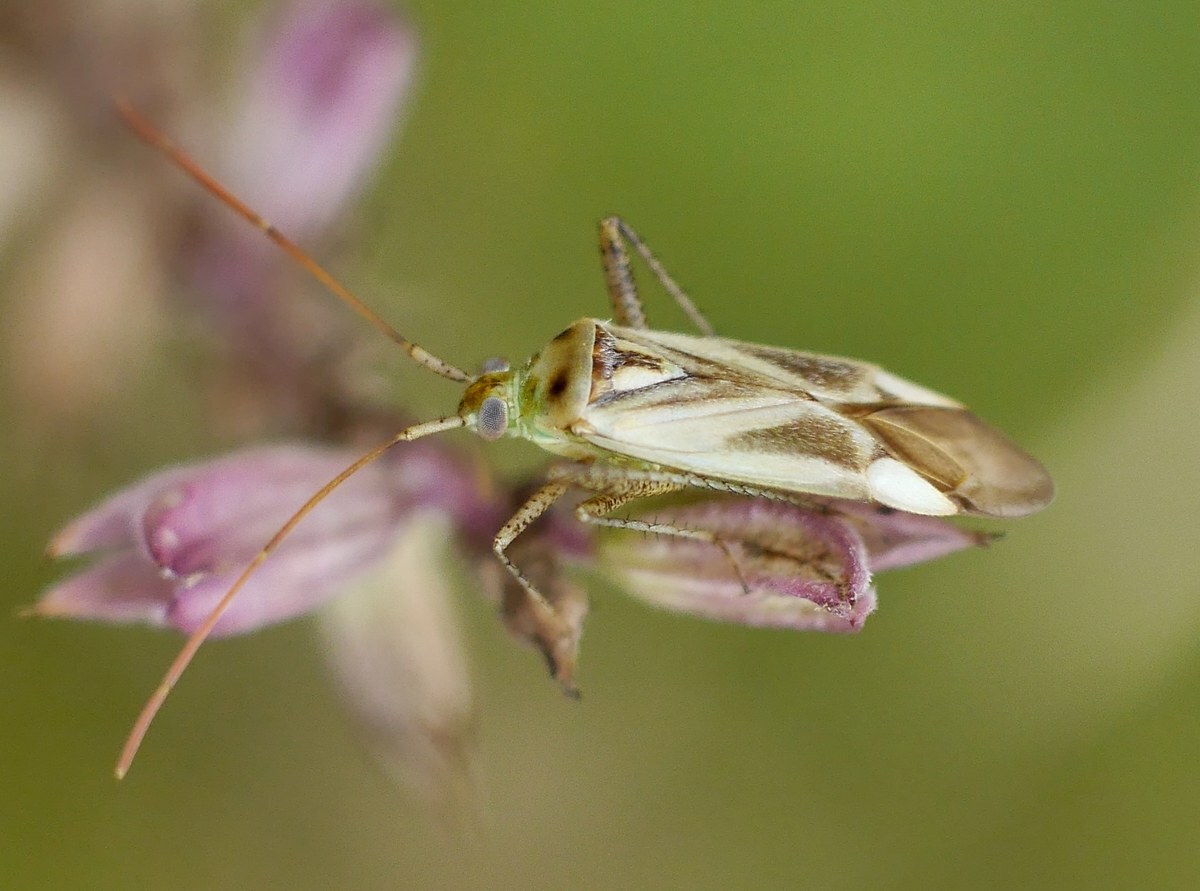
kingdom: Animalia
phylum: Arthropoda
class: Insecta
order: Hemiptera
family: Miridae
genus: Adelphocoris
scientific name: Adelphocoris lineolatus
